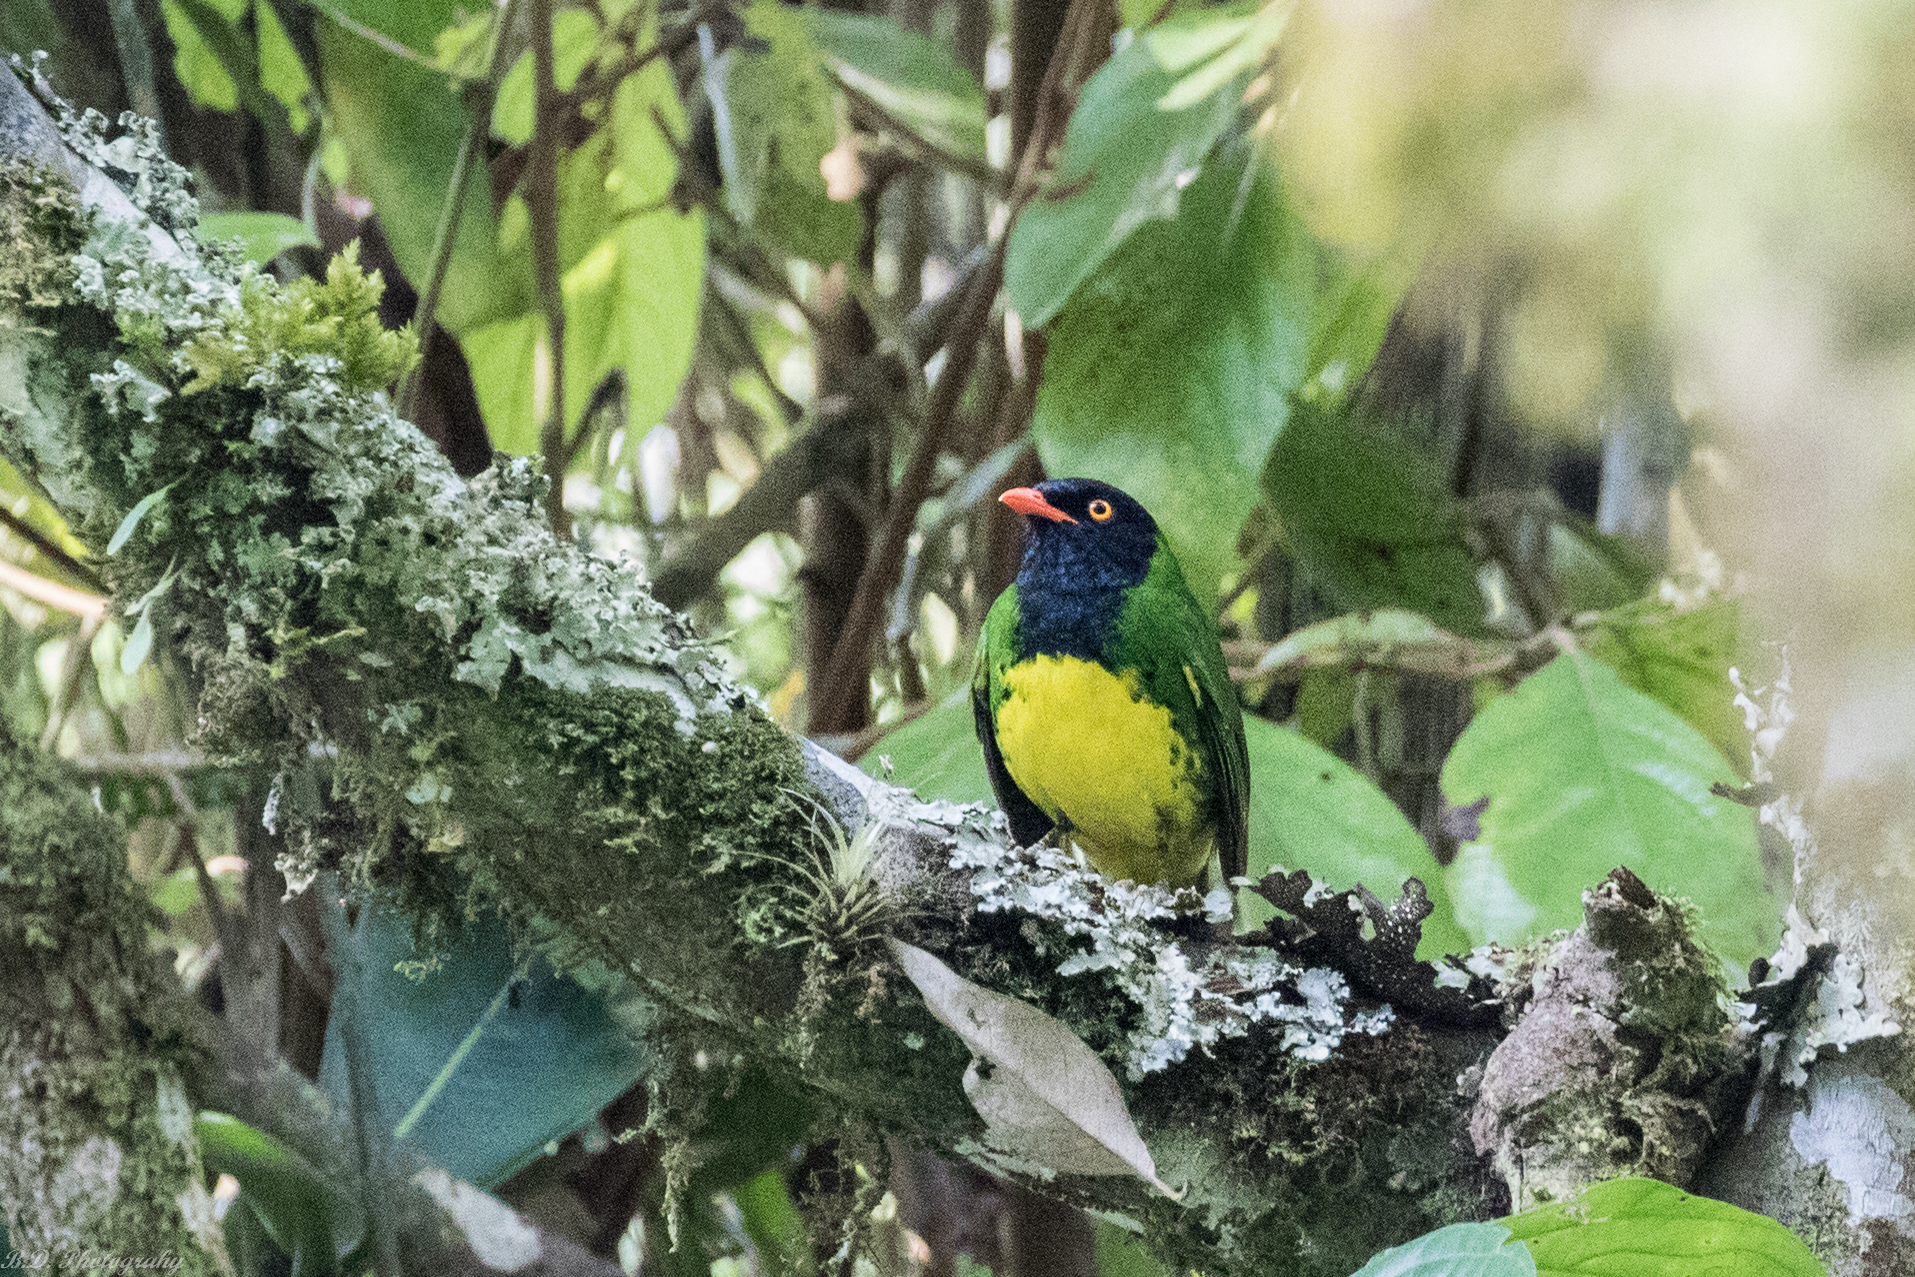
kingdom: Animalia
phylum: Chordata
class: Aves
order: Passeriformes
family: Cotingidae
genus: Pipreola
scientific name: Pipreola lubomirskii
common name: Black-chested fruiteater
